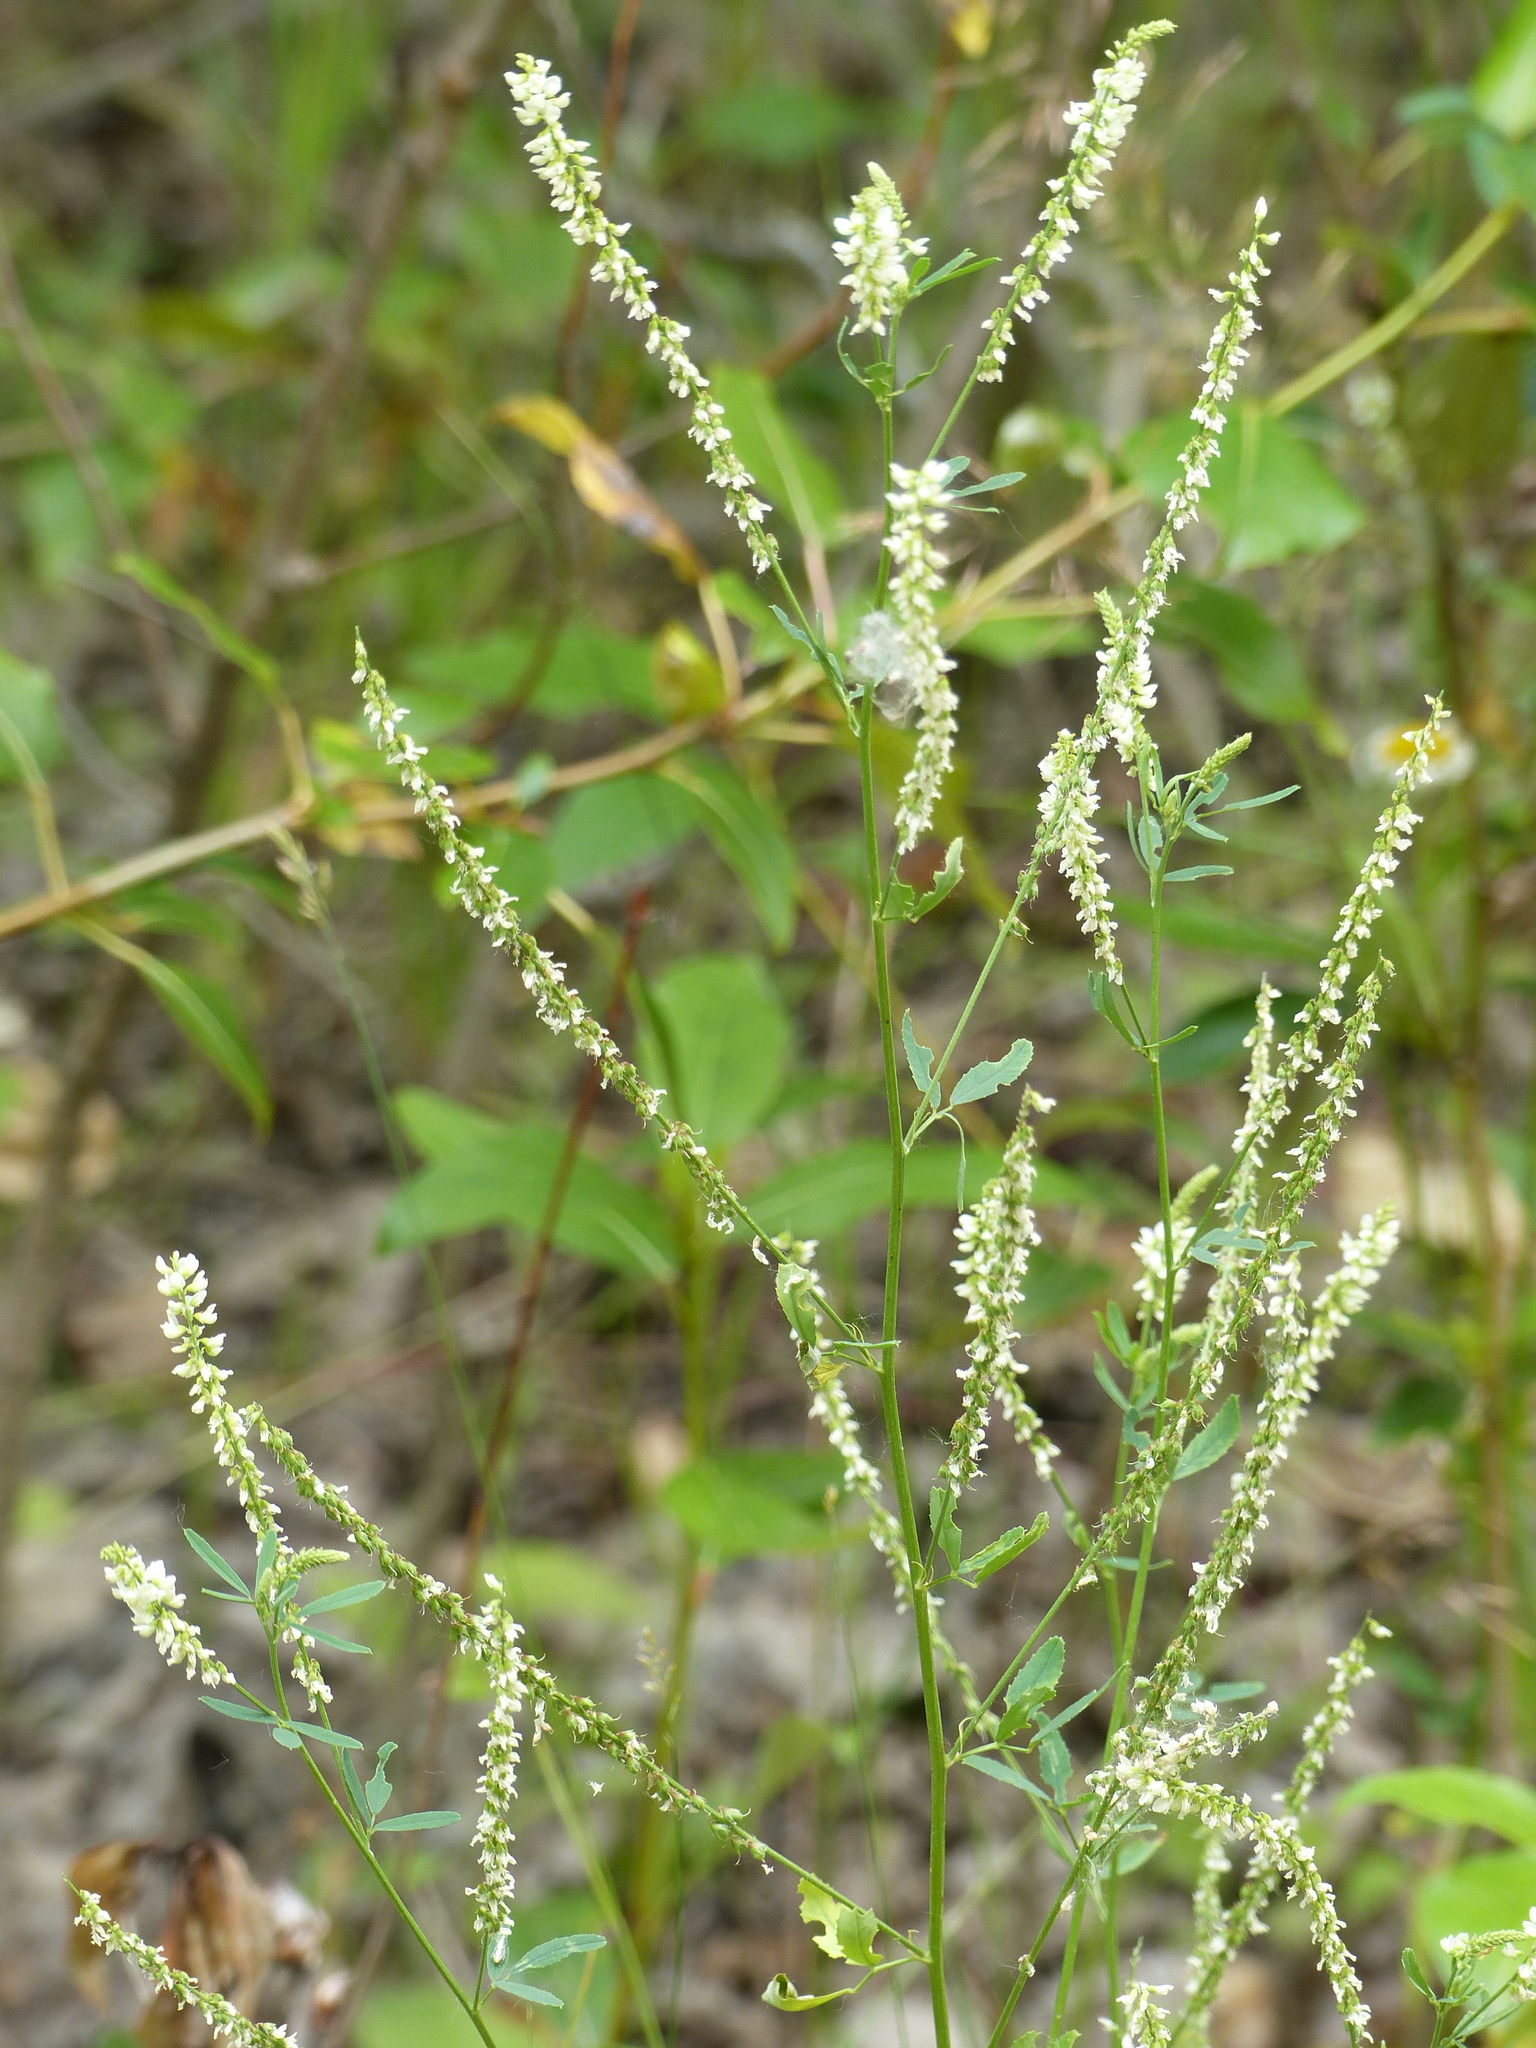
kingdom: Plantae
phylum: Tracheophyta
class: Magnoliopsida
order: Fabales
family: Fabaceae
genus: Melilotus
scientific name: Melilotus albus
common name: White melilot
